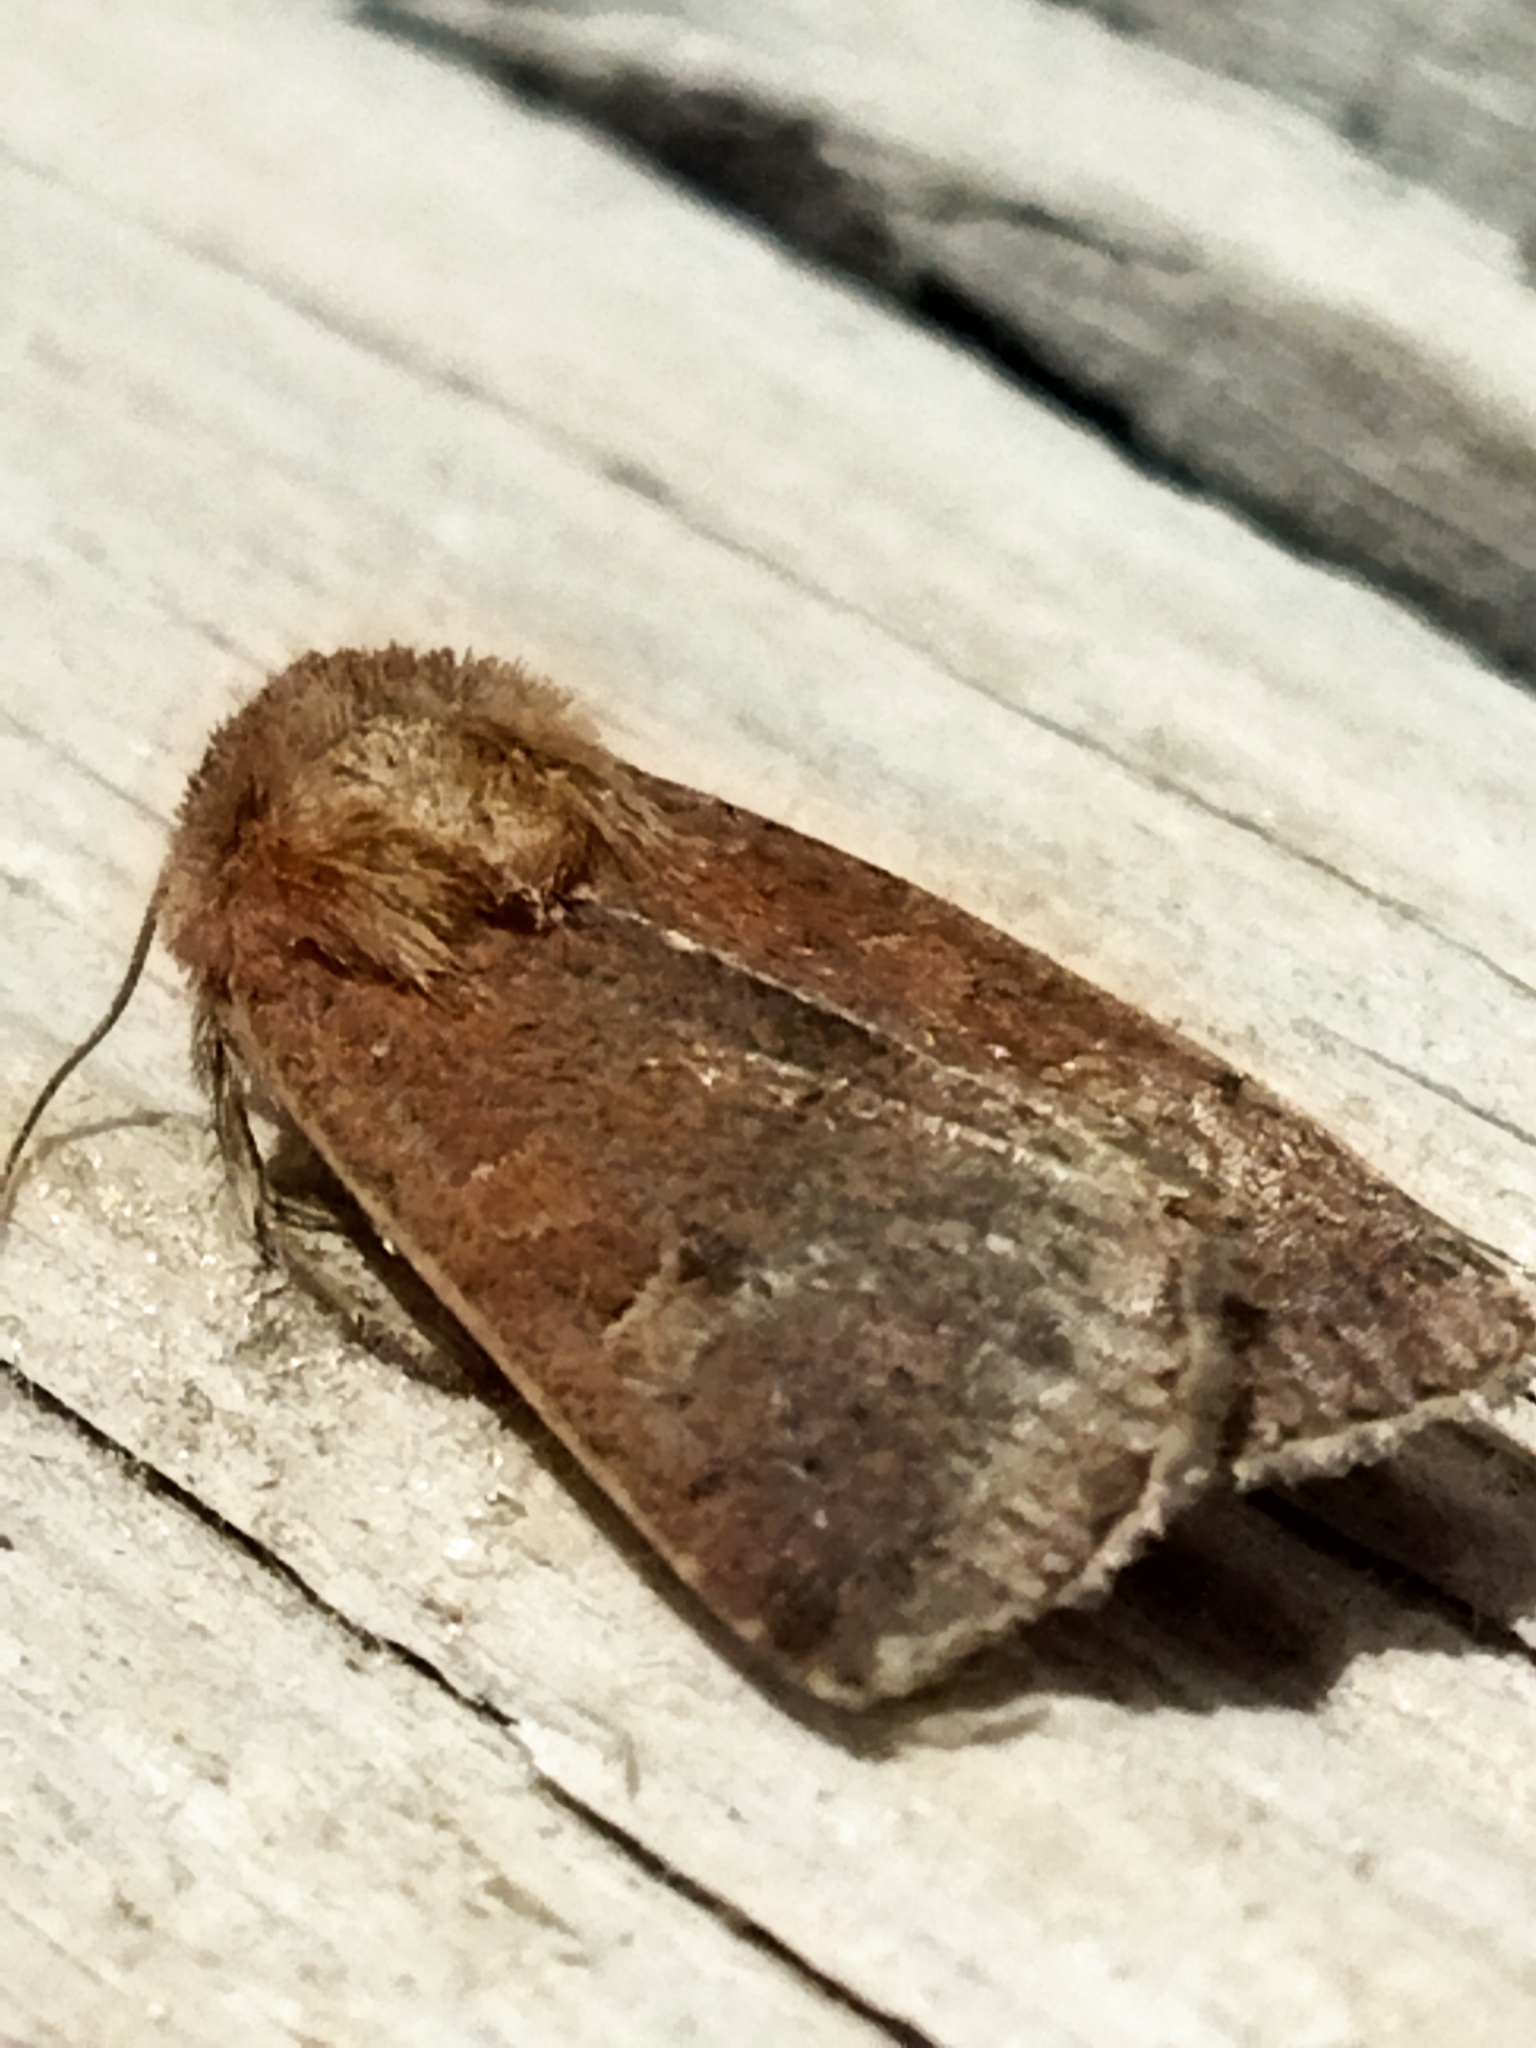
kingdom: Animalia
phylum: Arthropoda
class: Insecta
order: Lepidoptera
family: Noctuidae
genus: Xestia
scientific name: Xestia xanthographa
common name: Square-spot rustic
